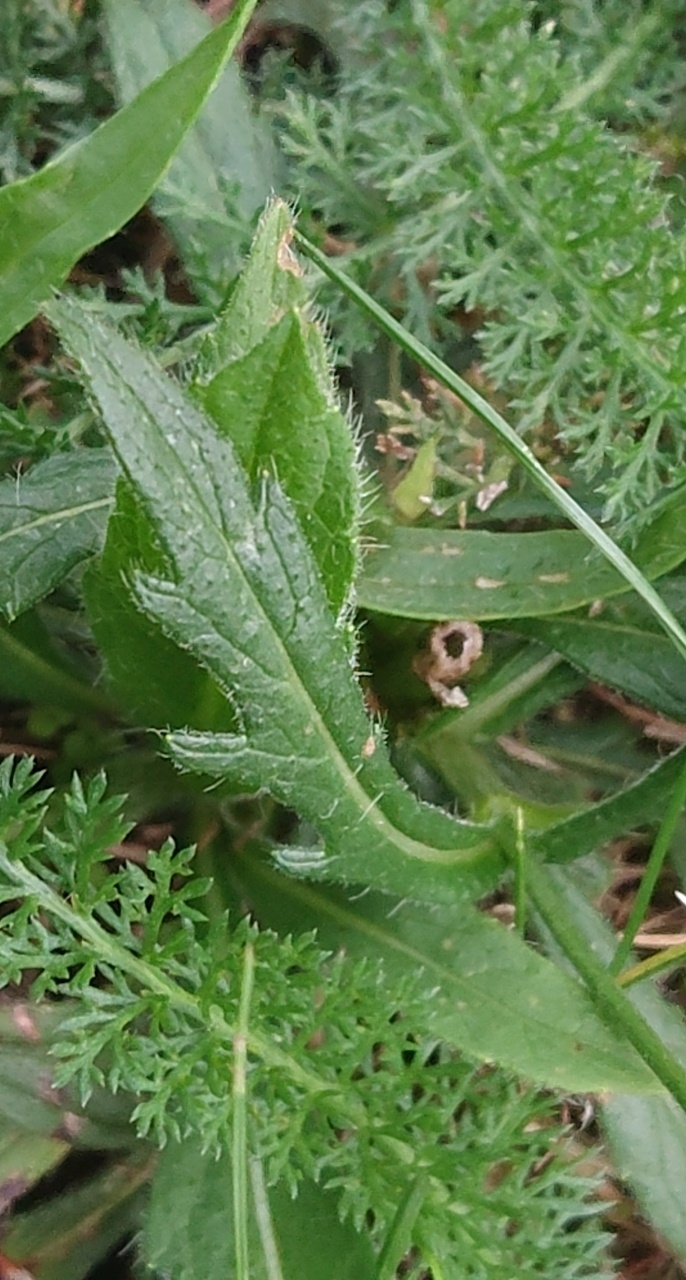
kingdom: Plantae
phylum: Tracheophyta
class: Magnoliopsida
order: Dipsacales
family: Caprifoliaceae
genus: Knautia
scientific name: Knautia arvensis
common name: Field scabiosa
